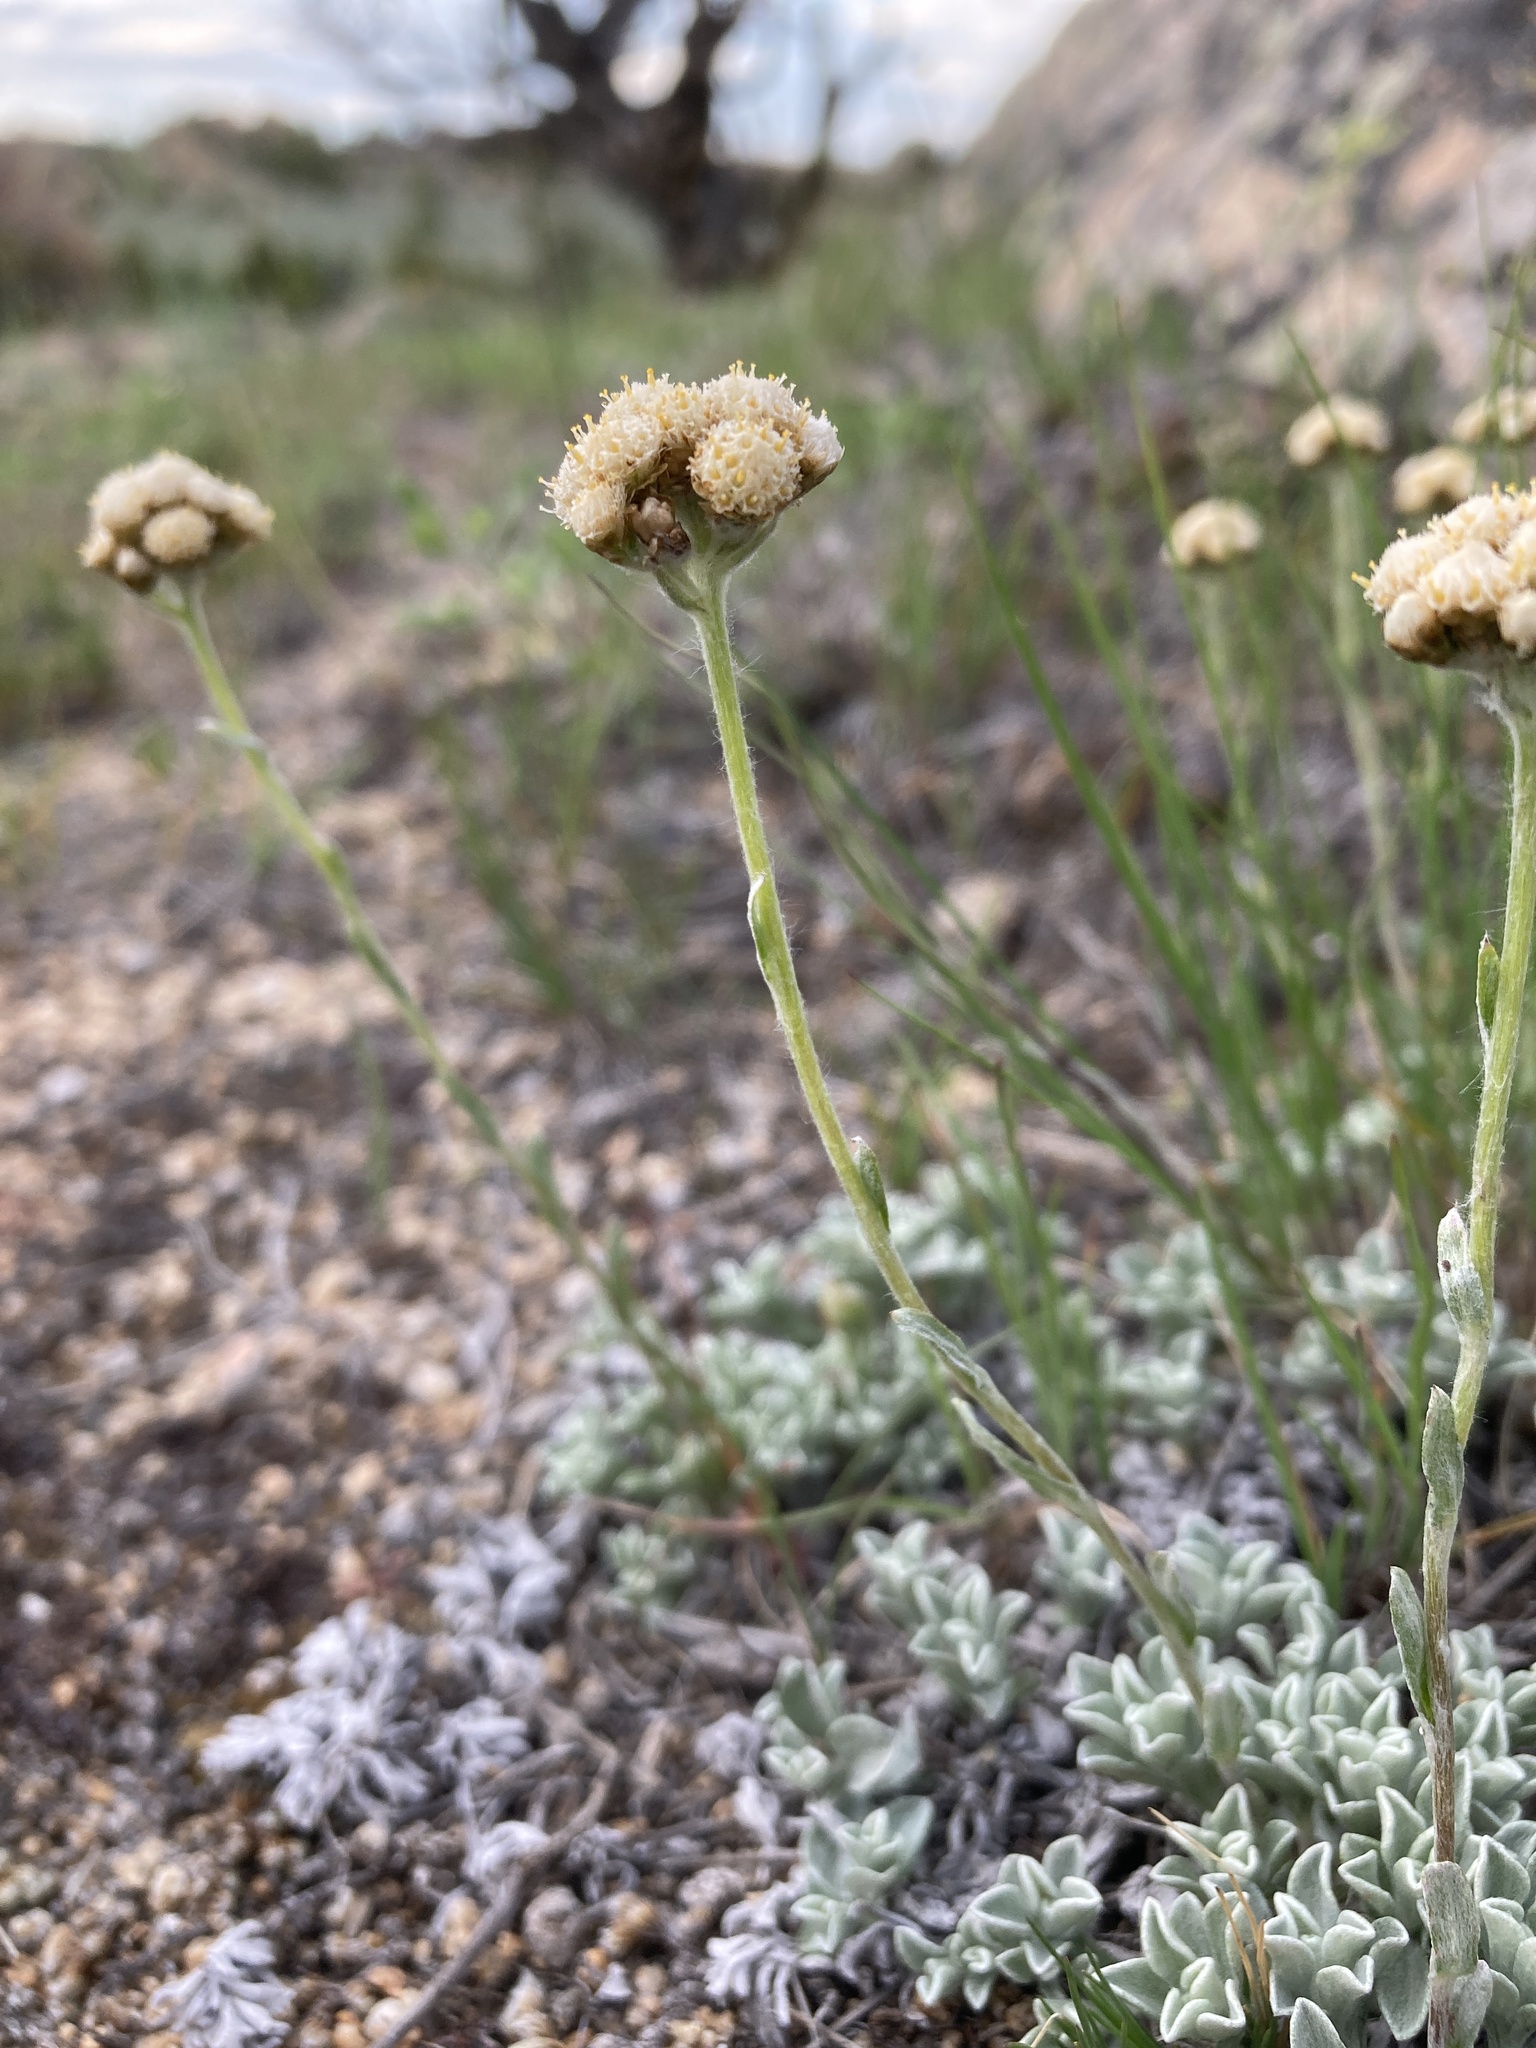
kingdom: Plantae
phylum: Tracheophyta
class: Magnoliopsida
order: Asterales
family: Asteraceae
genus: Antennaria
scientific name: Antennaria umbrinella
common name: Brown pussytoes
